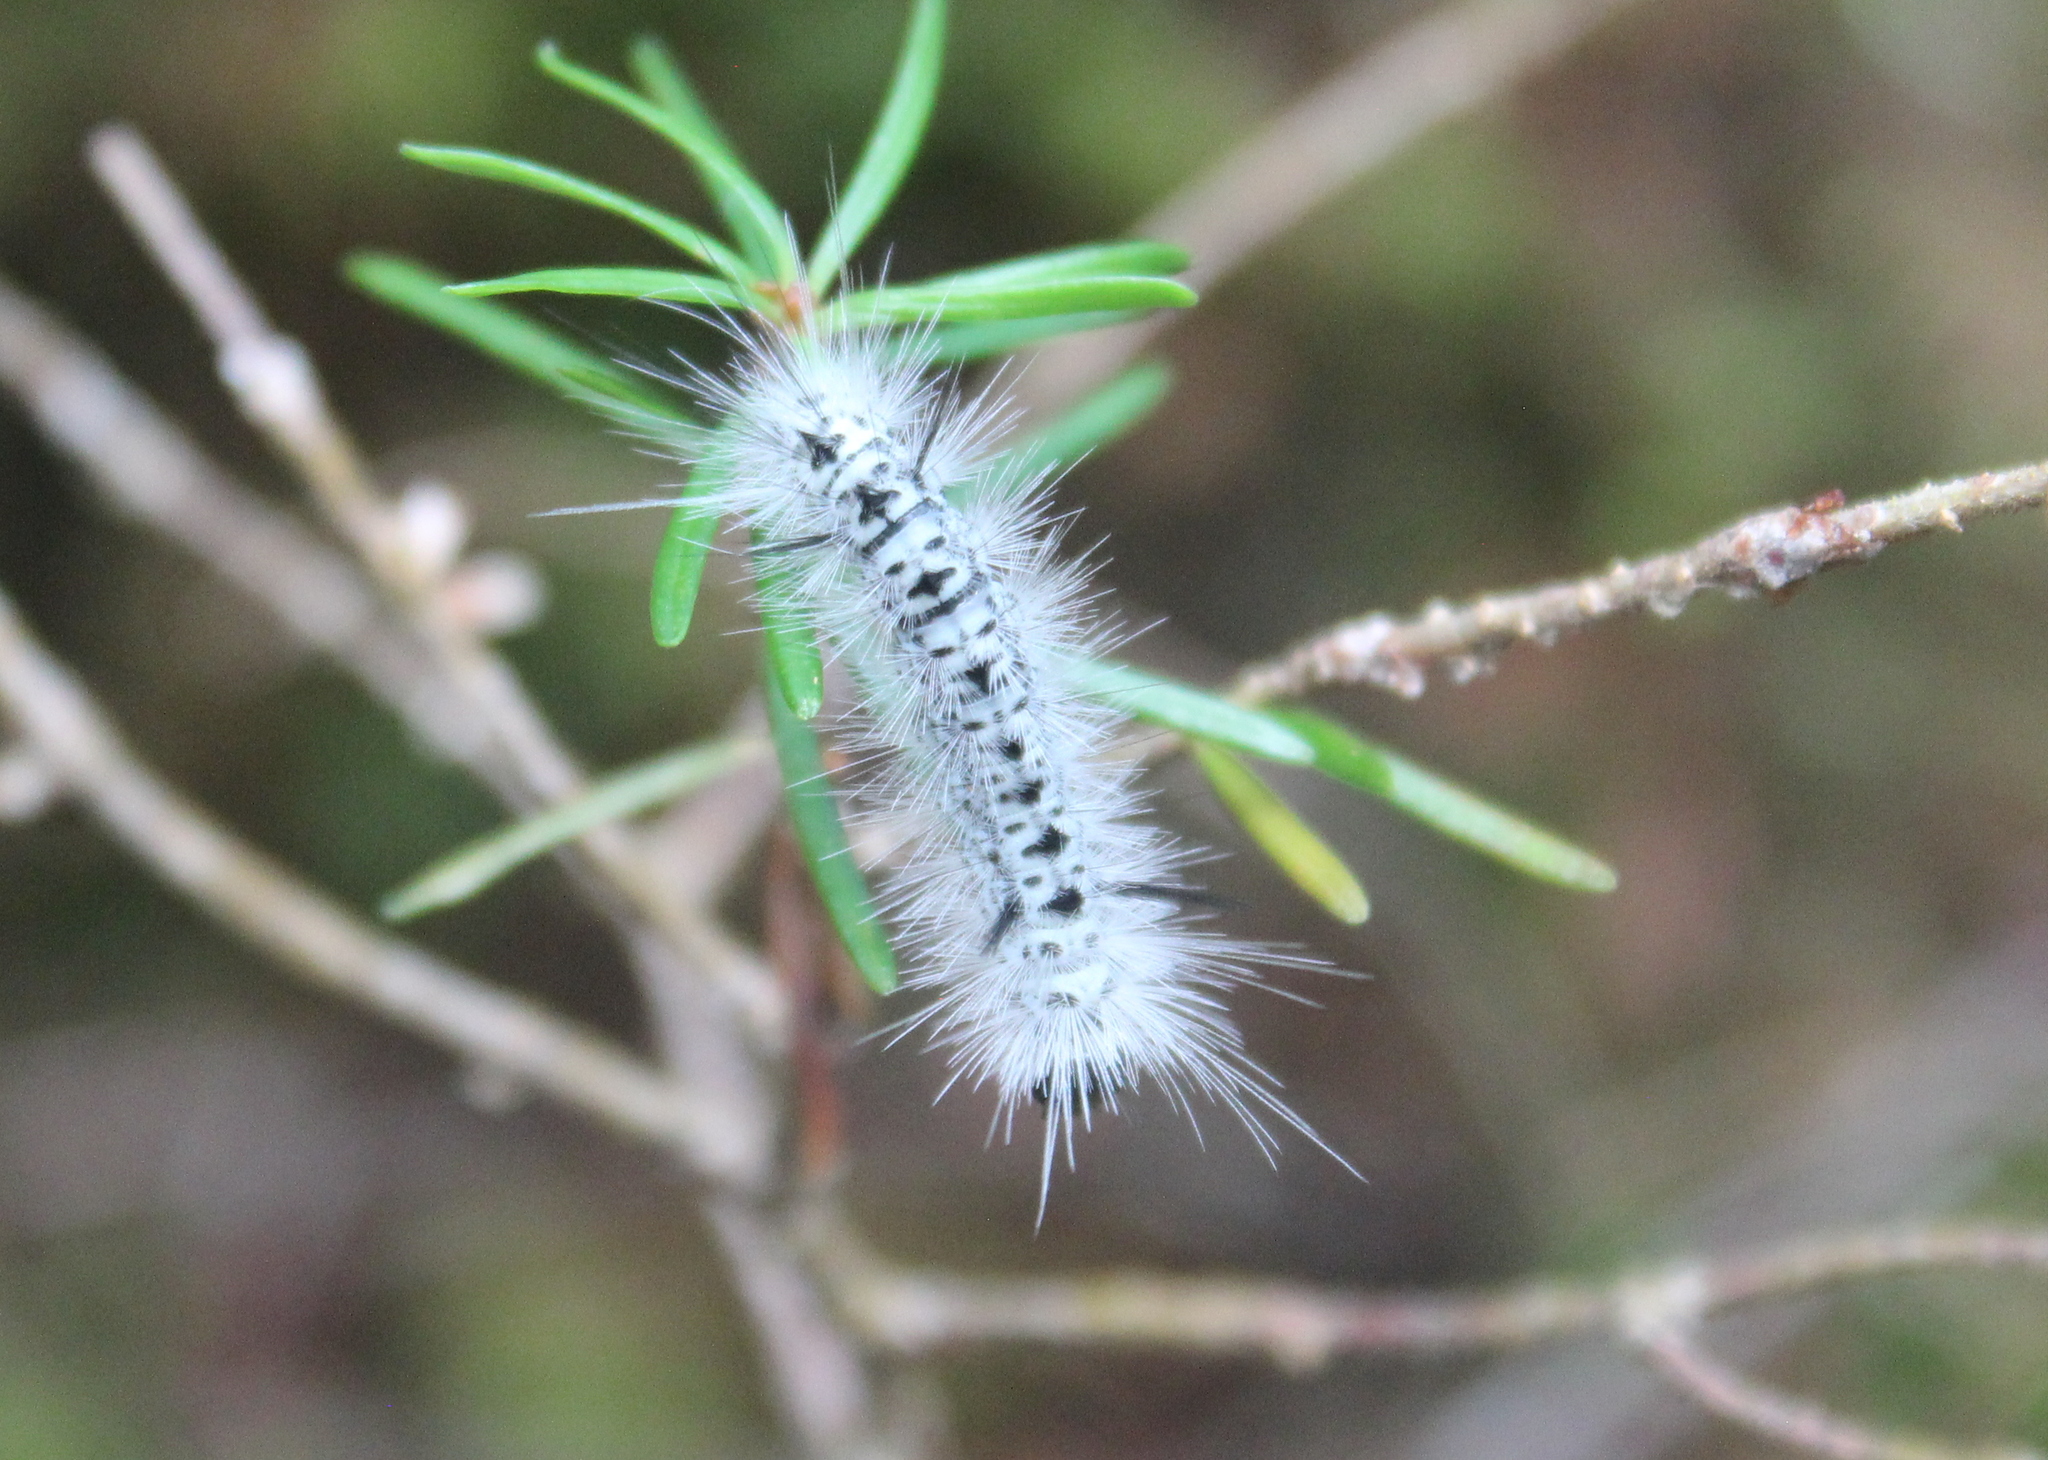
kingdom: Animalia
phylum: Arthropoda
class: Insecta
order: Lepidoptera
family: Erebidae
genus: Lophocampa
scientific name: Lophocampa caryae
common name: Hickory tussock moth
